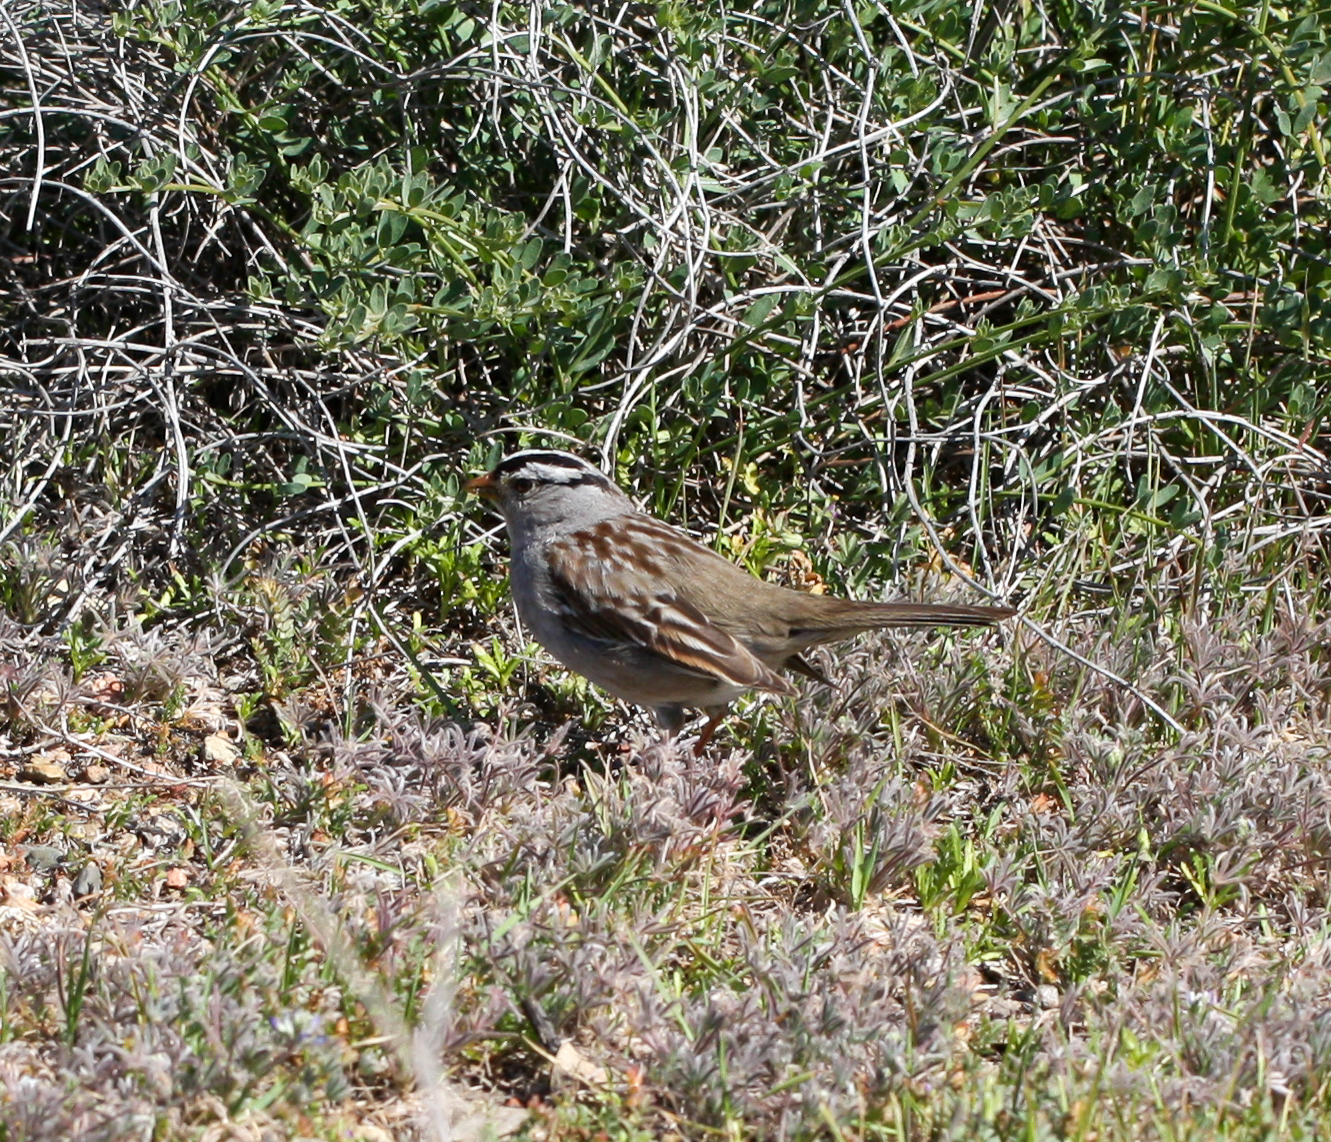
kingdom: Animalia
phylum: Chordata
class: Aves
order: Passeriformes
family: Passerellidae
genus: Zonotrichia
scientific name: Zonotrichia leucophrys
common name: White-crowned sparrow
